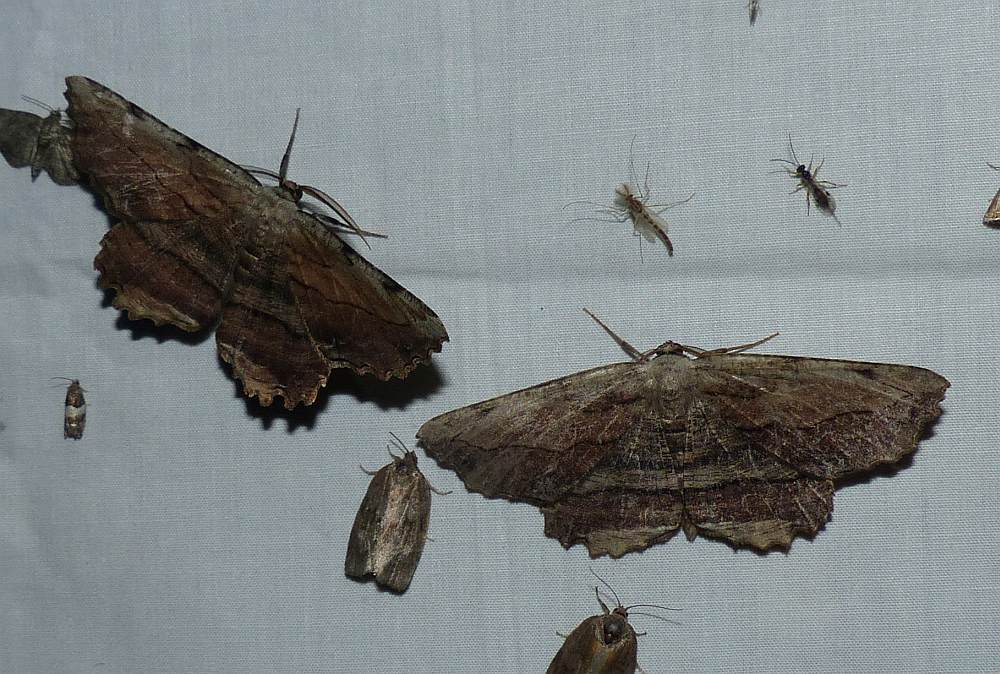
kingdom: Animalia
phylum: Arthropoda
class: Insecta
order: Lepidoptera
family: Geometridae
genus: Lytrosis
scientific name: Lytrosis unitaria
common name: Common lytrosis
